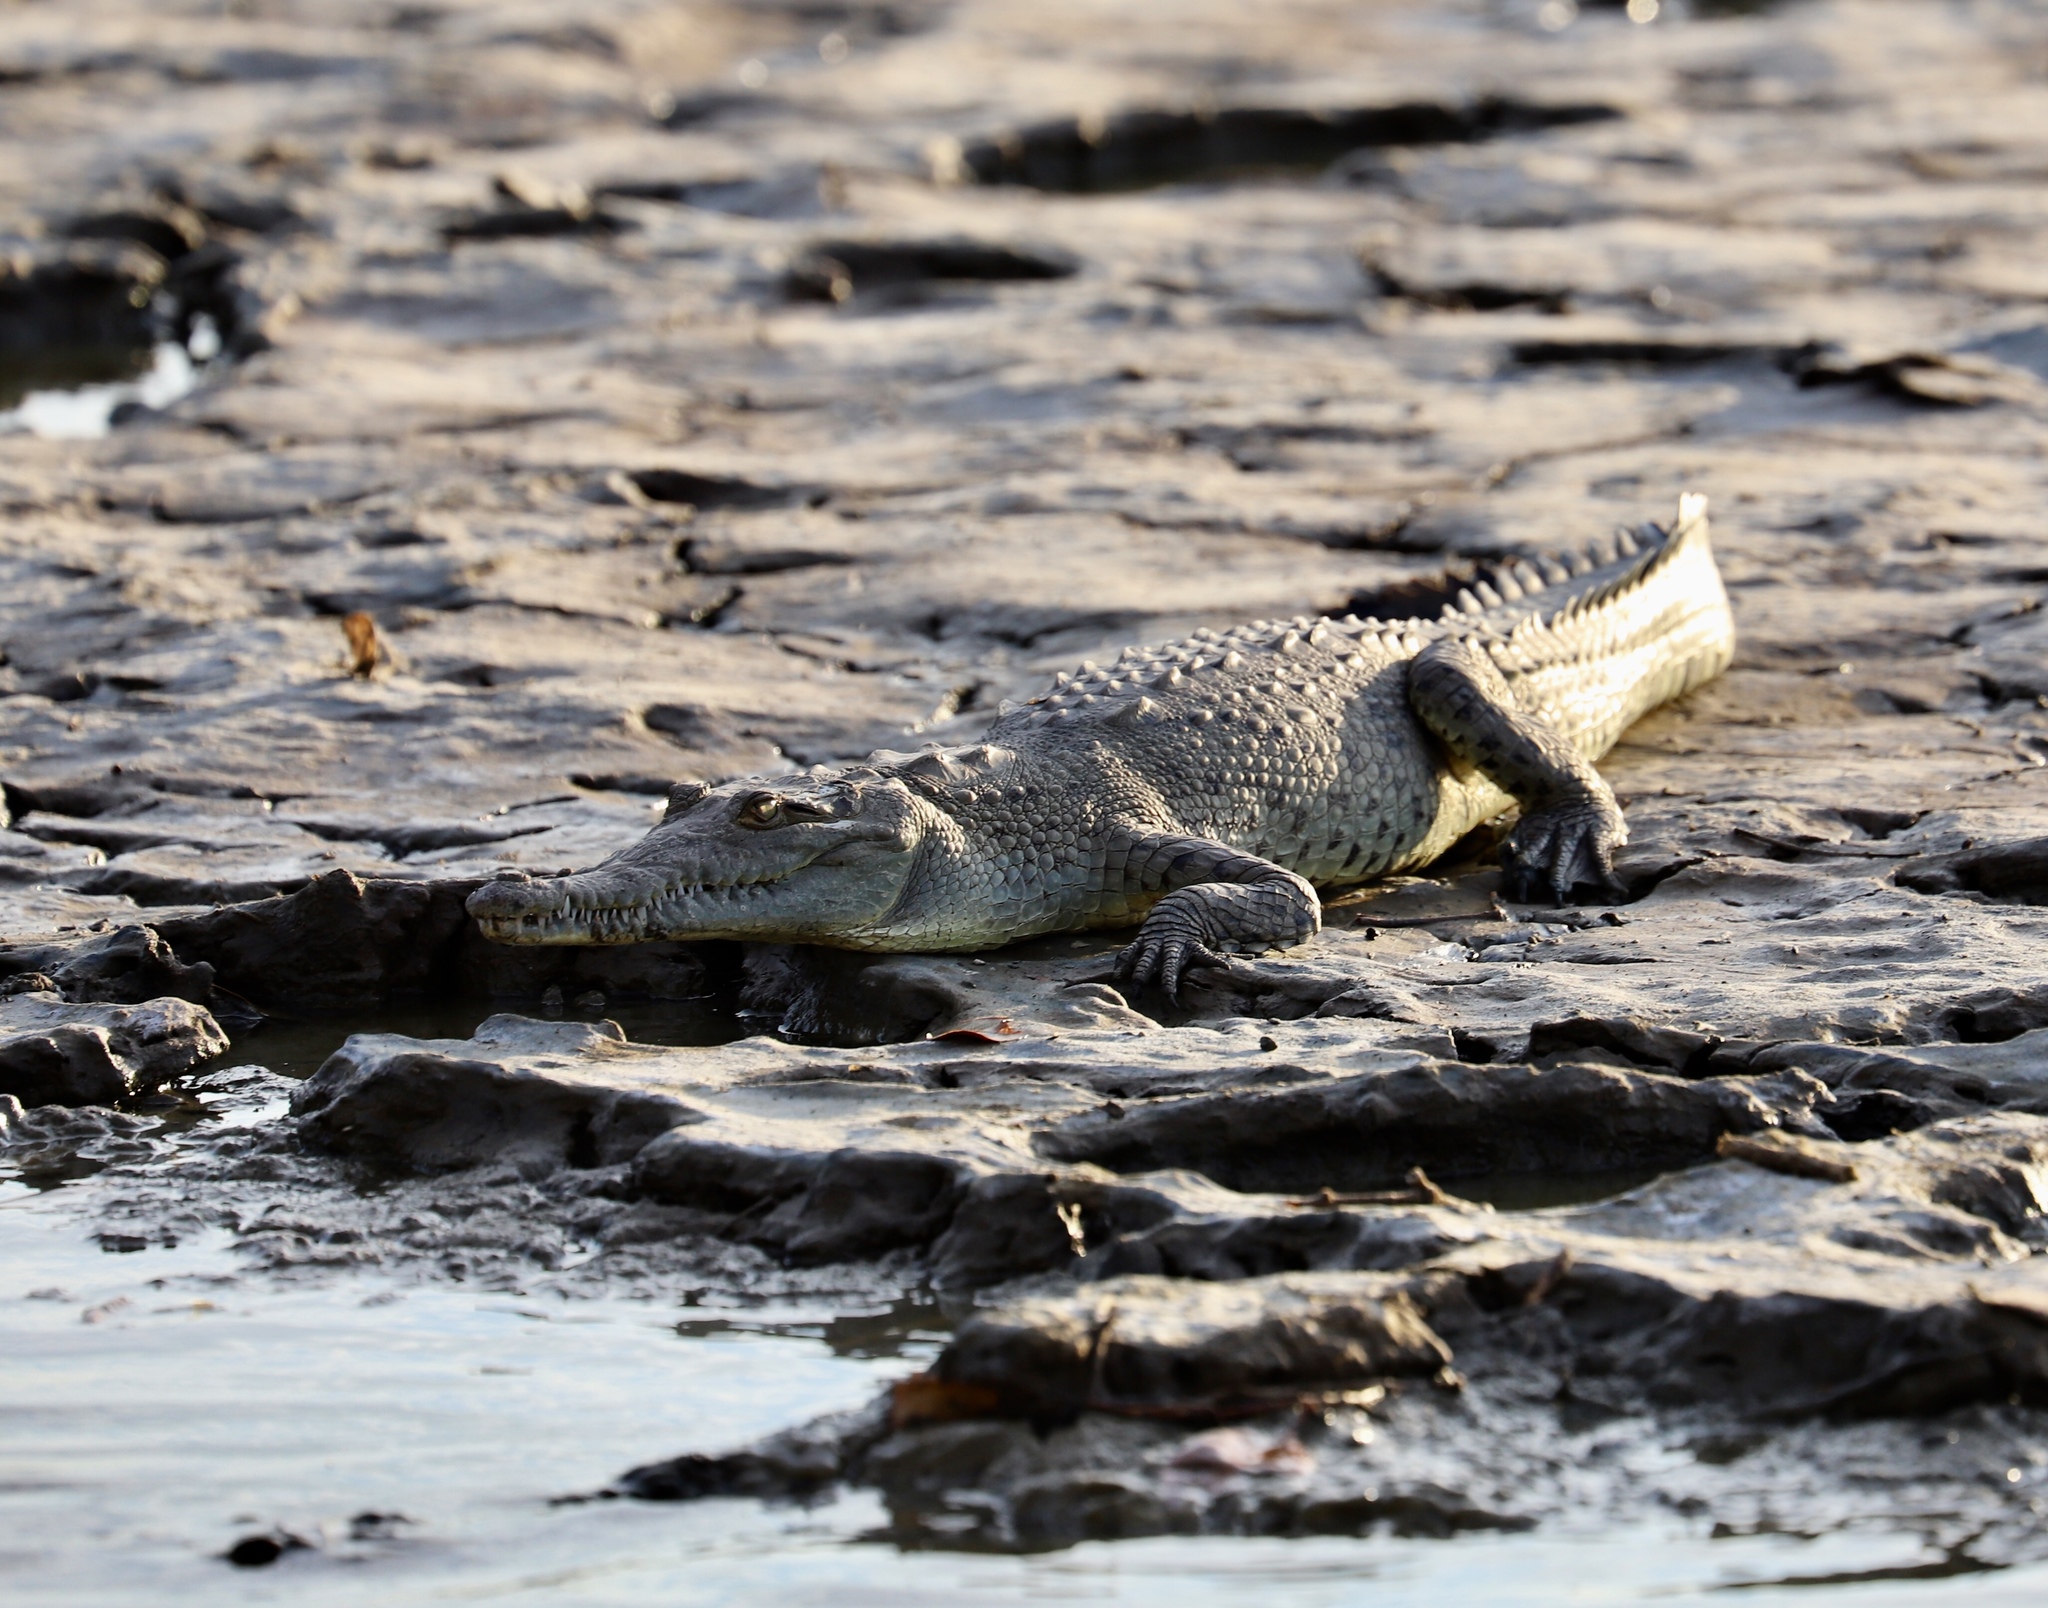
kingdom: Animalia
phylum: Chordata
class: Crocodylia
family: Crocodylidae
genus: Crocodylus
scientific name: Crocodylus acutus
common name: American crocodile
